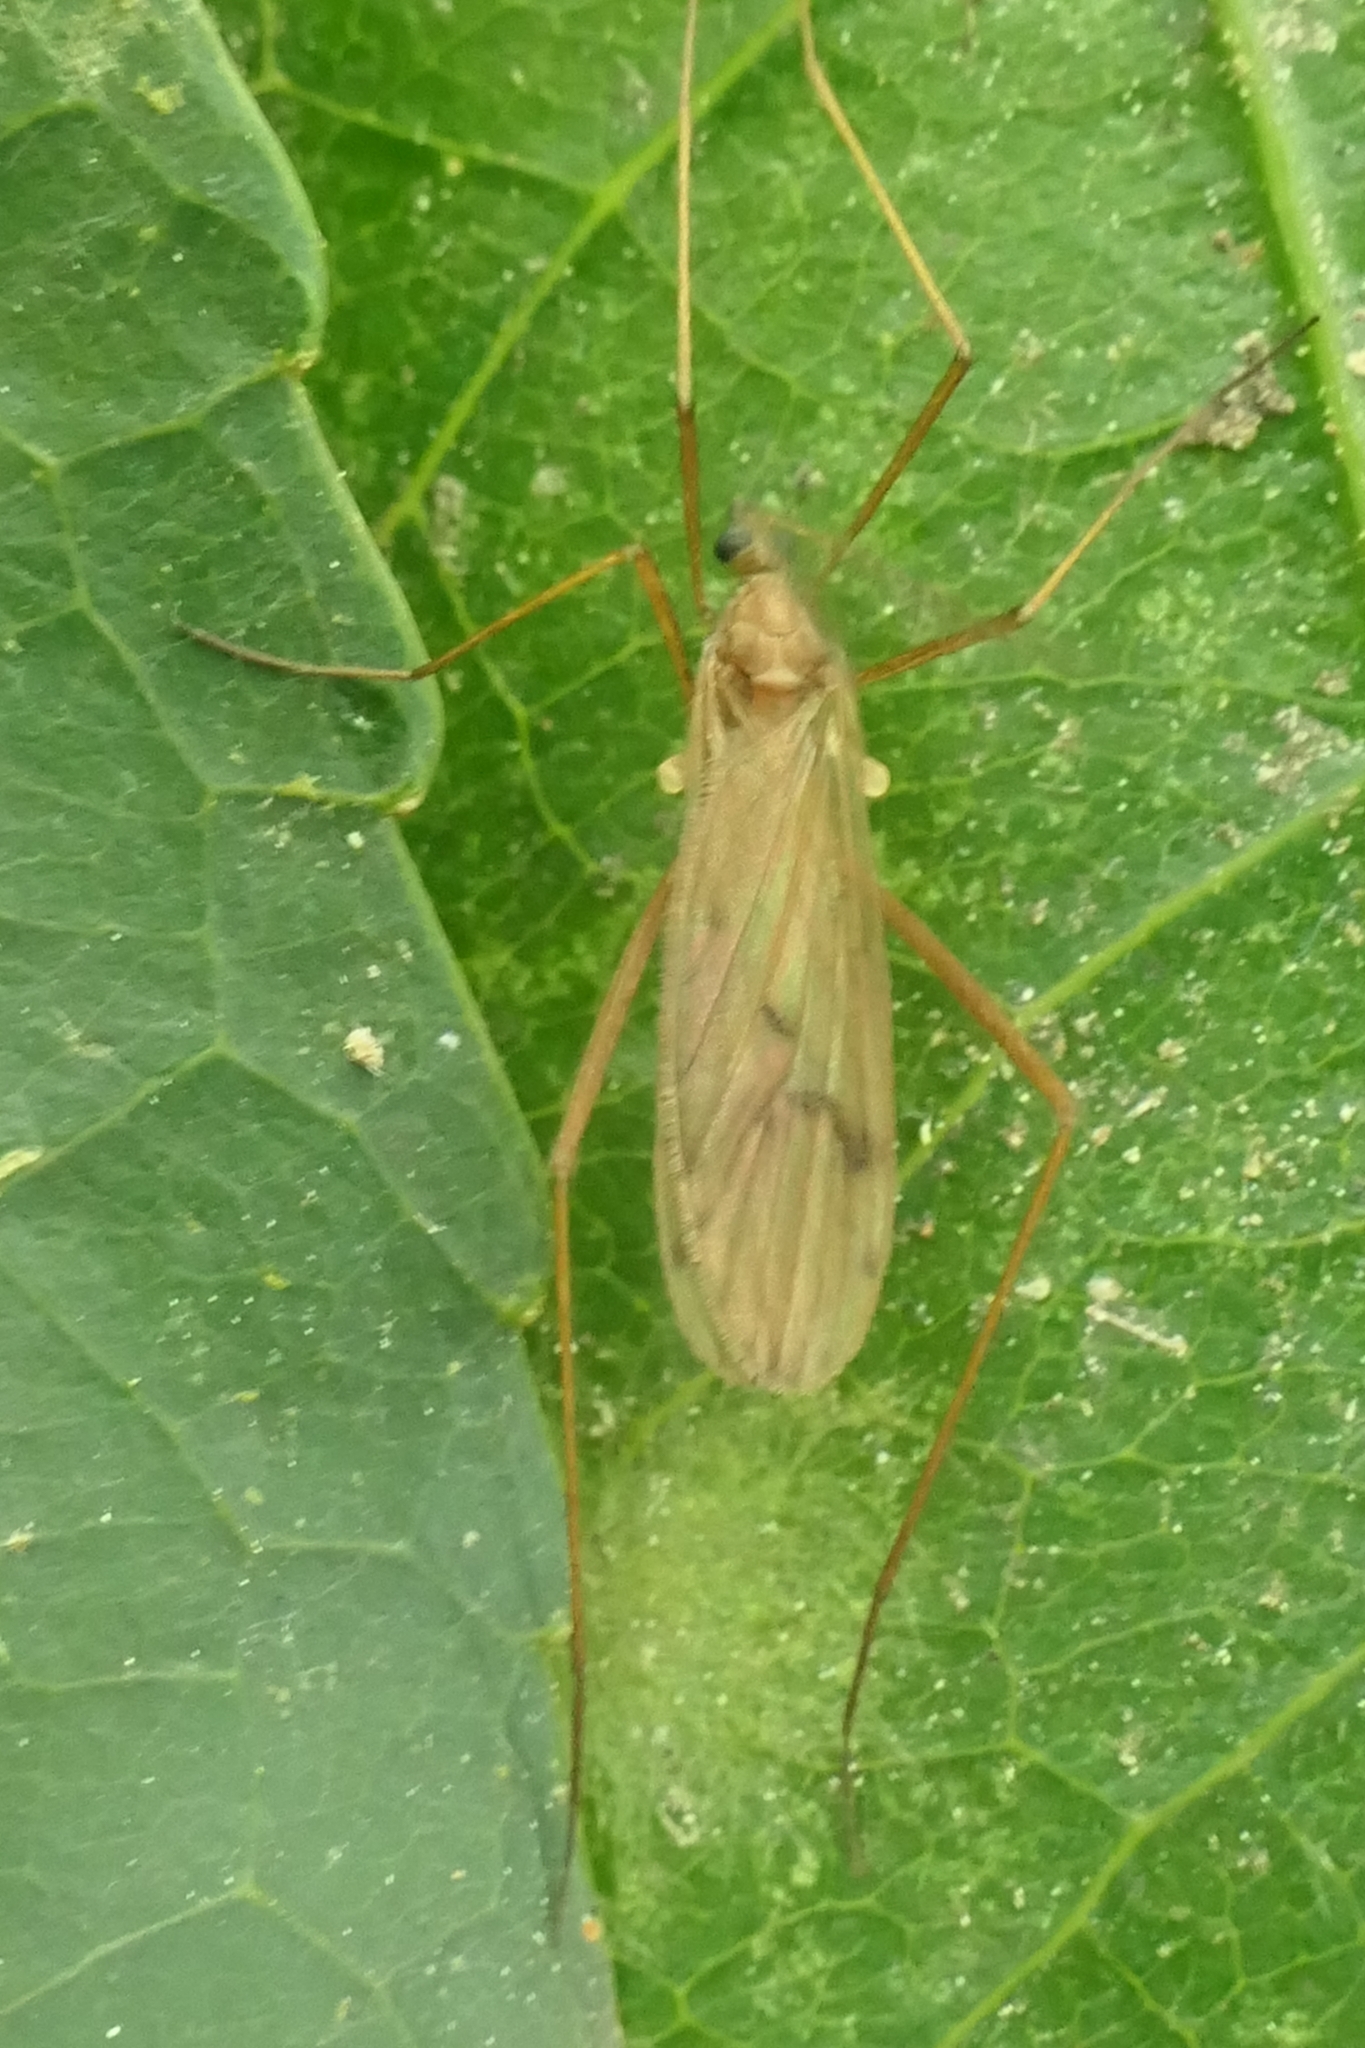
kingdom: Animalia
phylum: Arthropoda
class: Insecta
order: Diptera
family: Limoniidae
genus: Amphineurus
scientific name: Amphineurus insulsus
